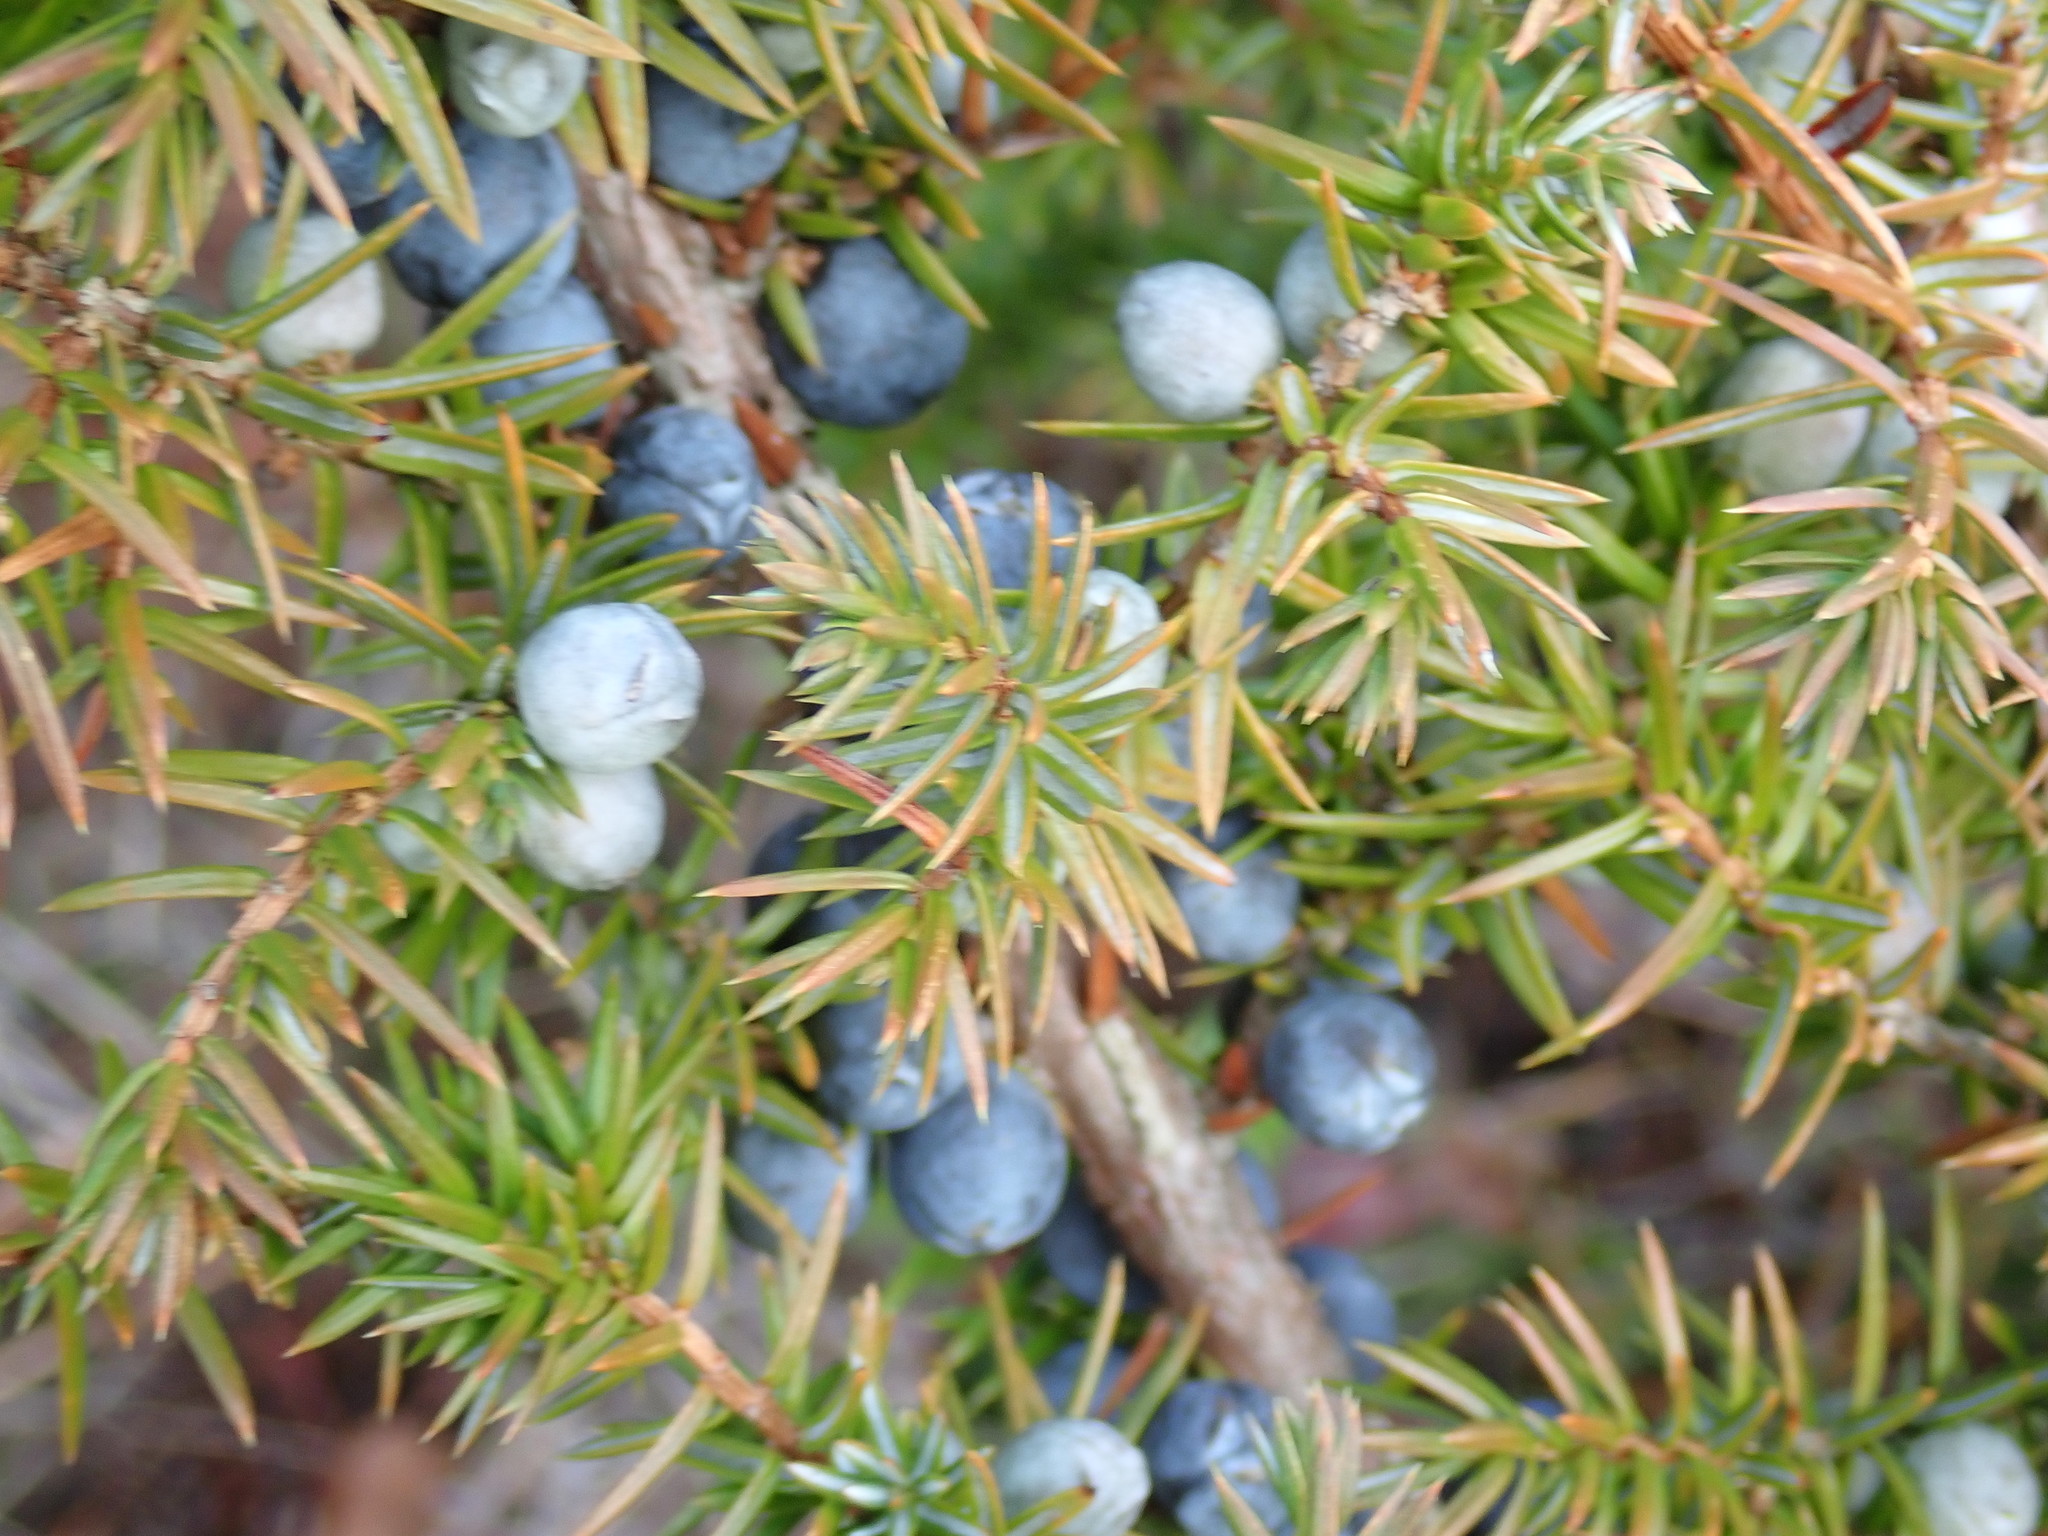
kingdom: Plantae
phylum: Tracheophyta
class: Pinopsida
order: Pinales
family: Cupressaceae
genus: Juniperus
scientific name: Juniperus communis
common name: Common juniper
